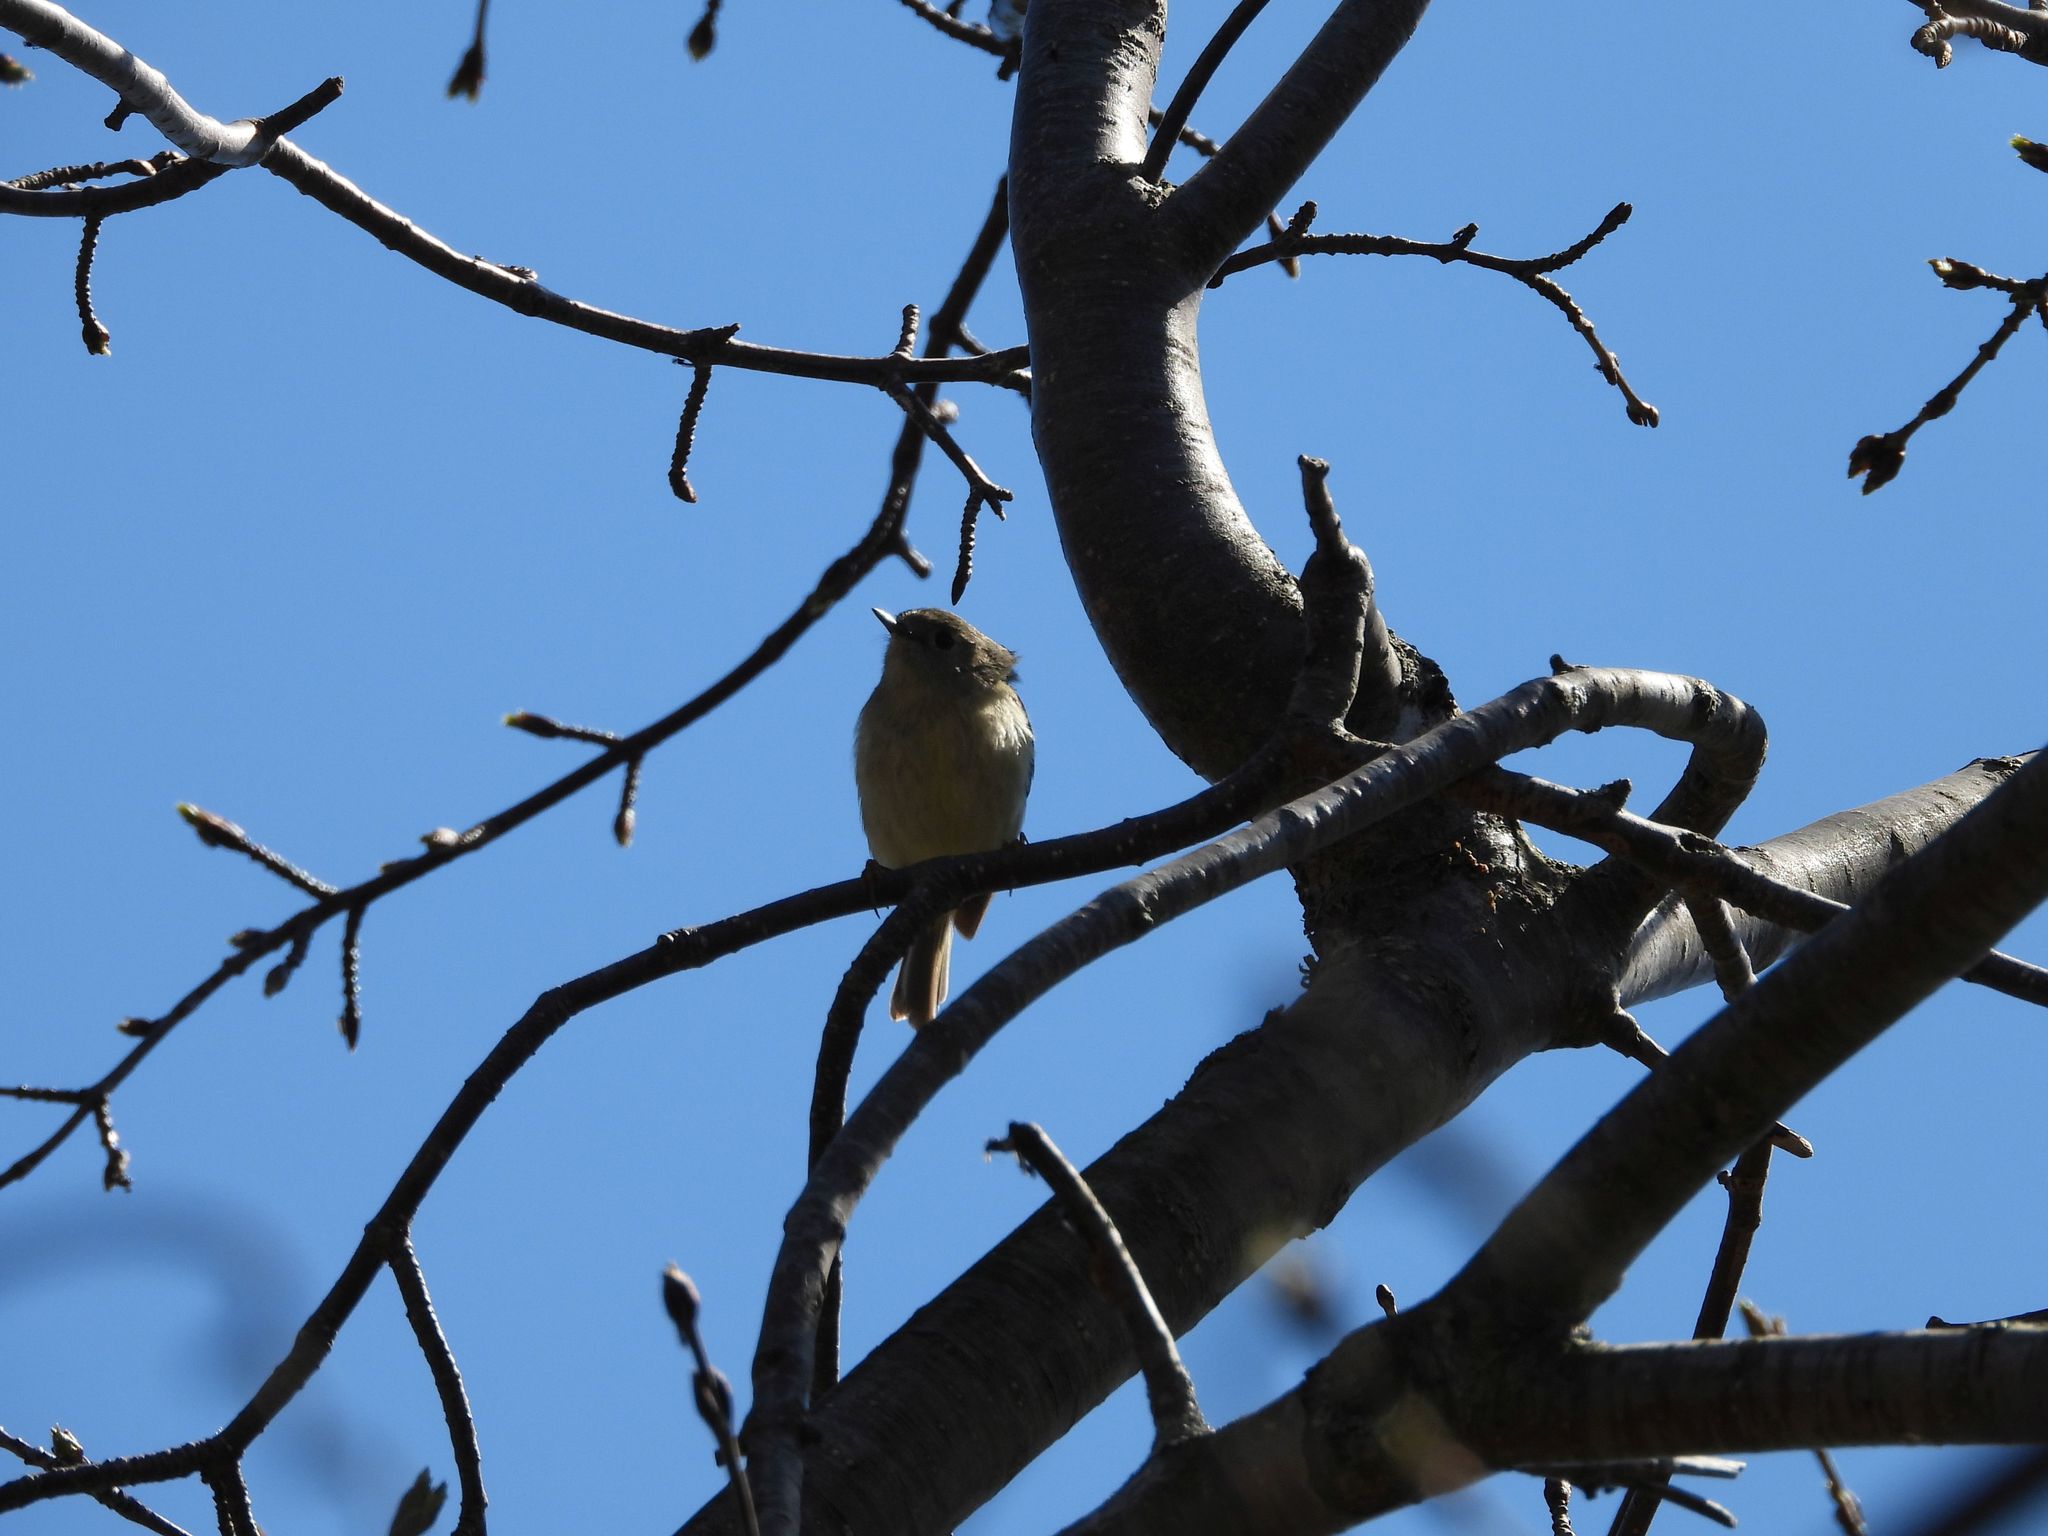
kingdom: Animalia
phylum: Chordata
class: Aves
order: Passeriformes
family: Regulidae
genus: Regulus
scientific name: Regulus calendula
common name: Ruby-crowned kinglet
